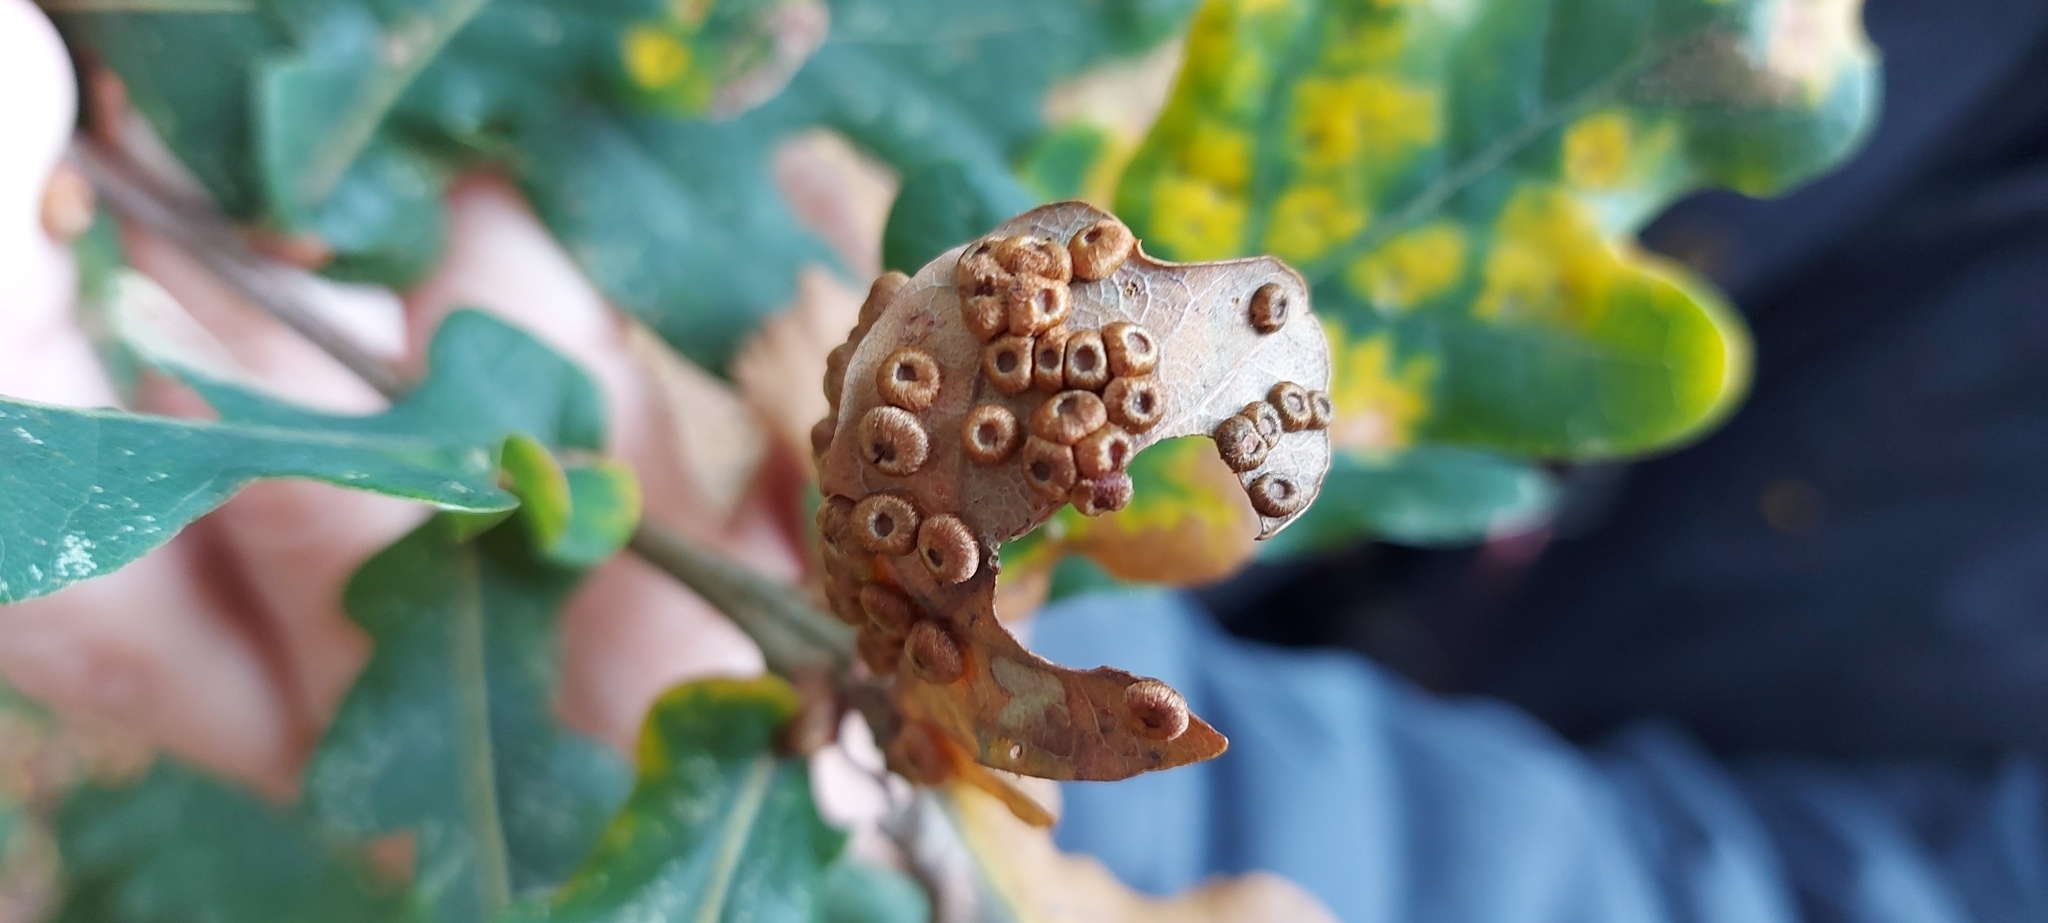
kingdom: Animalia
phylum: Arthropoda
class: Insecta
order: Hymenoptera
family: Cynipidae
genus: Neuroterus
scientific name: Neuroterus numismalis
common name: Silk-button spangle gall
